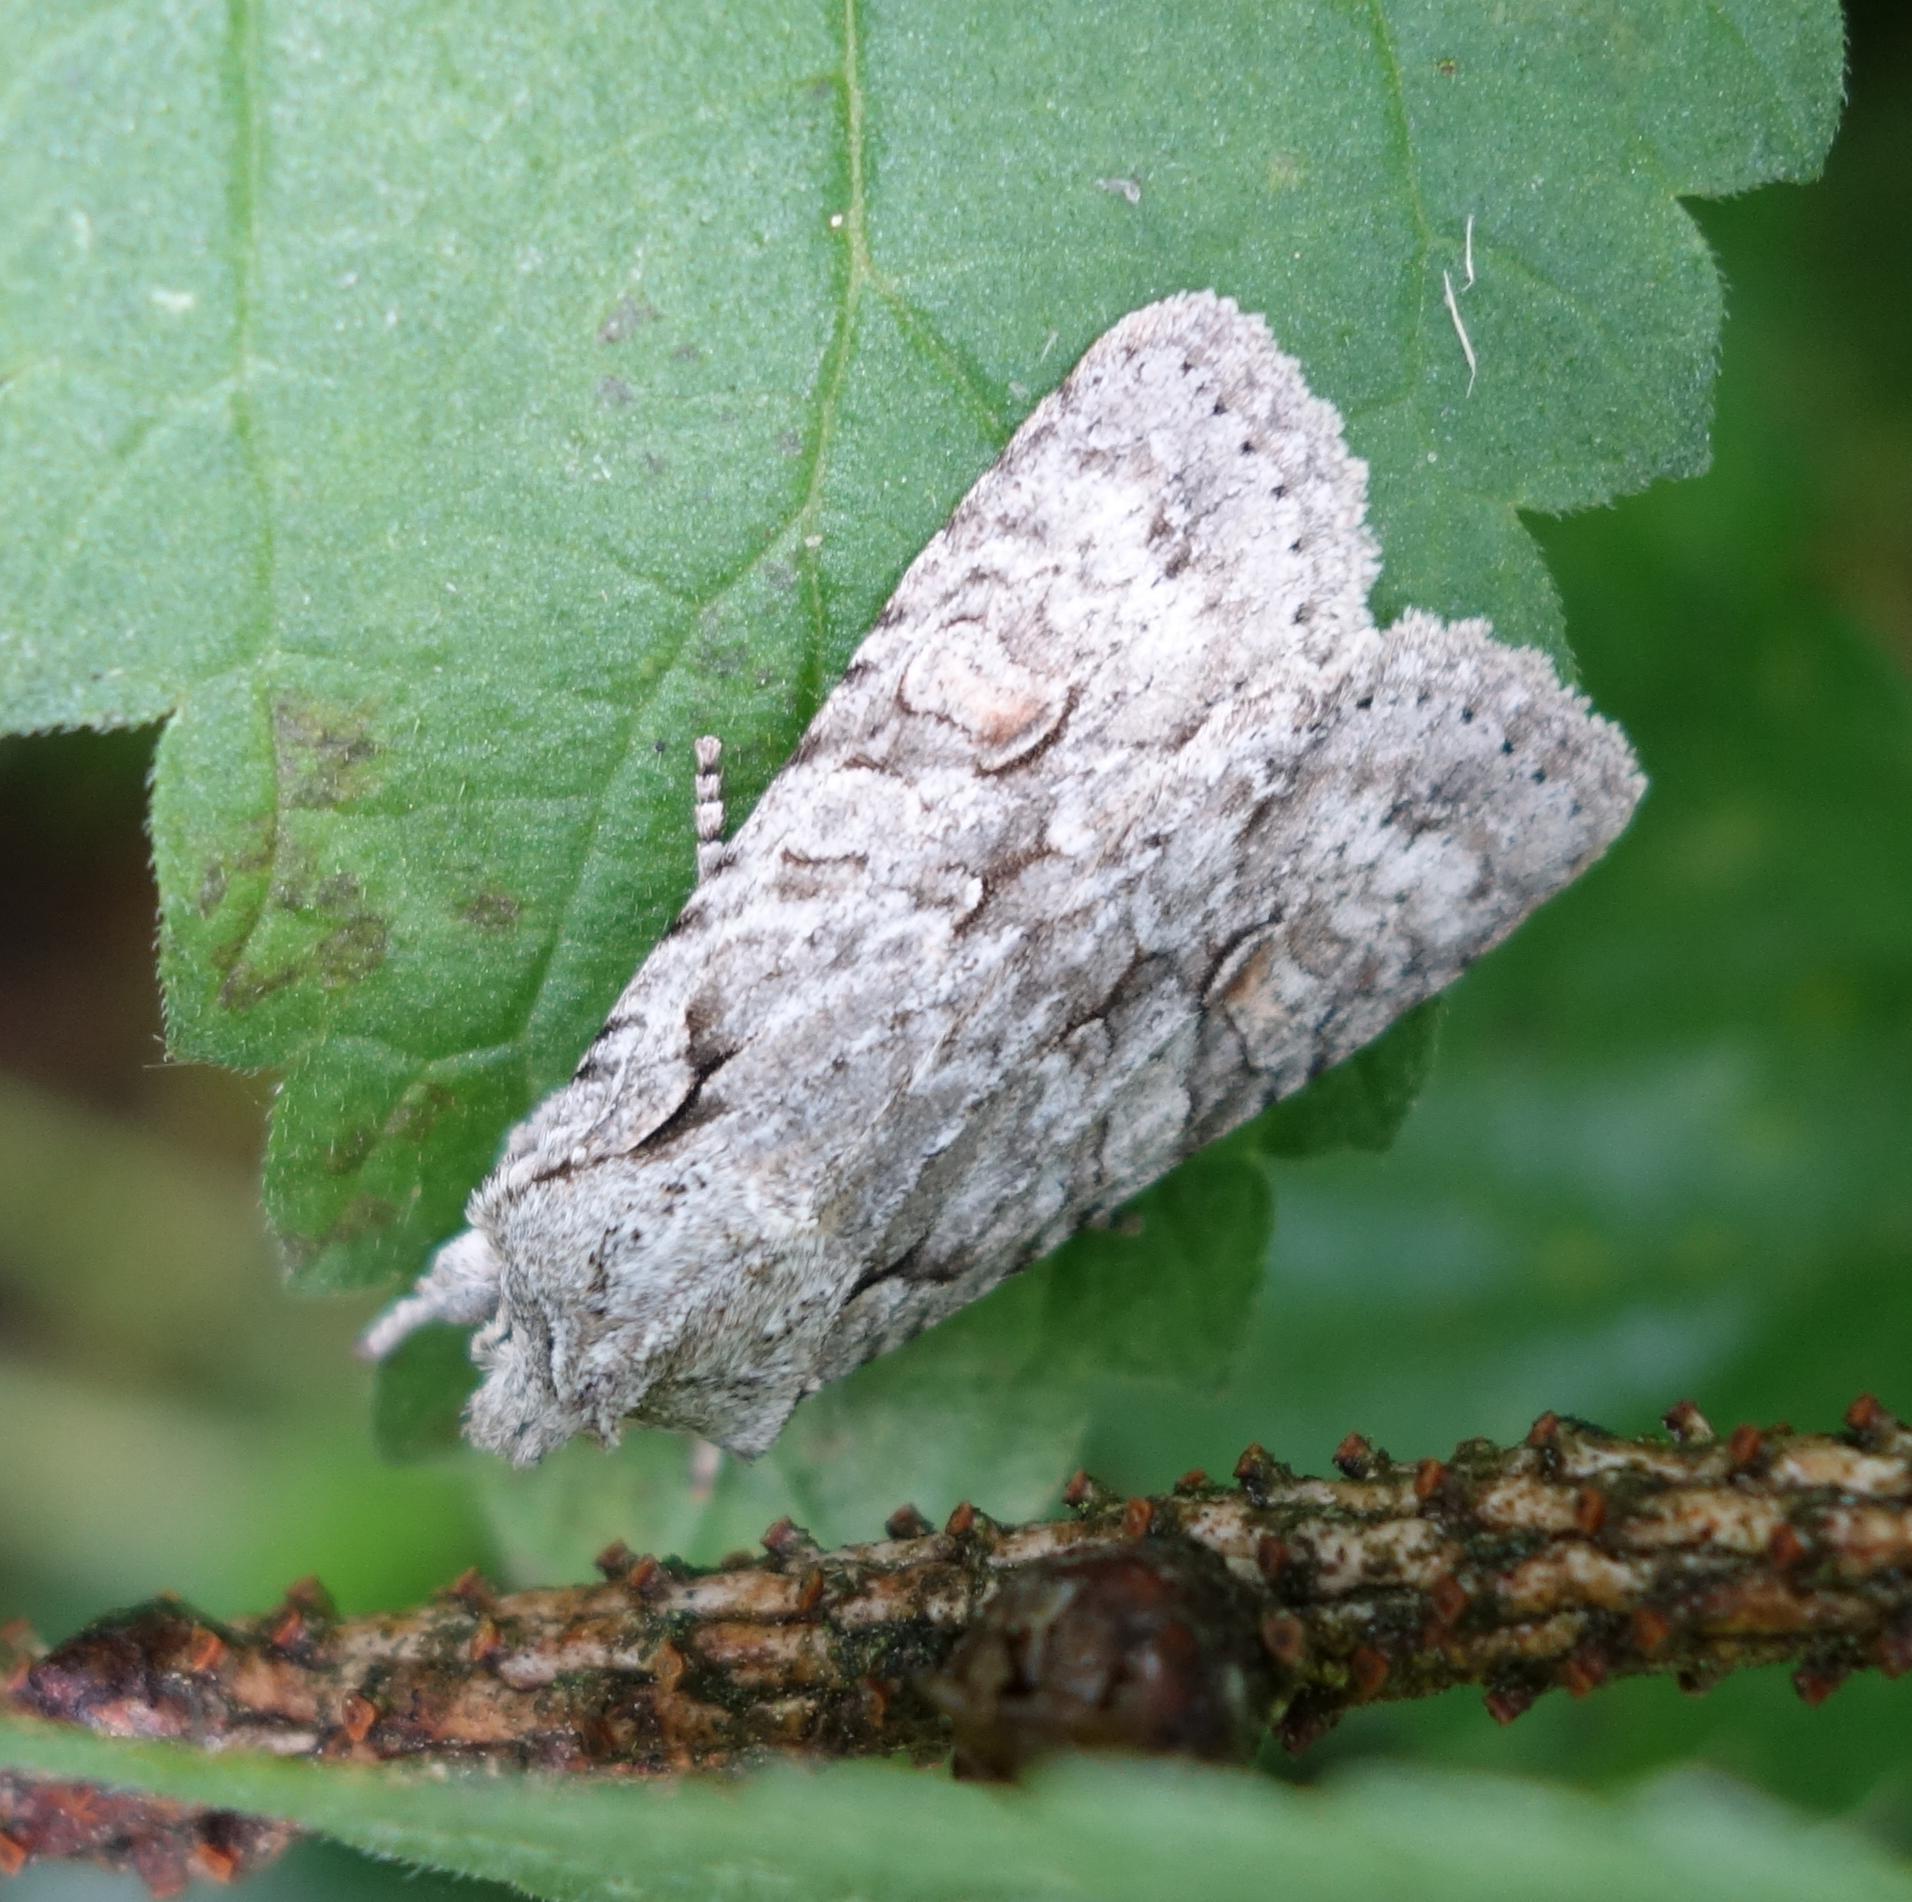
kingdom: Animalia
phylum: Arthropoda
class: Insecta
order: Lepidoptera
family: Noctuidae
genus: Lithophane
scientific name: Lithophane ornitopus
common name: Grey shoulder-knot
